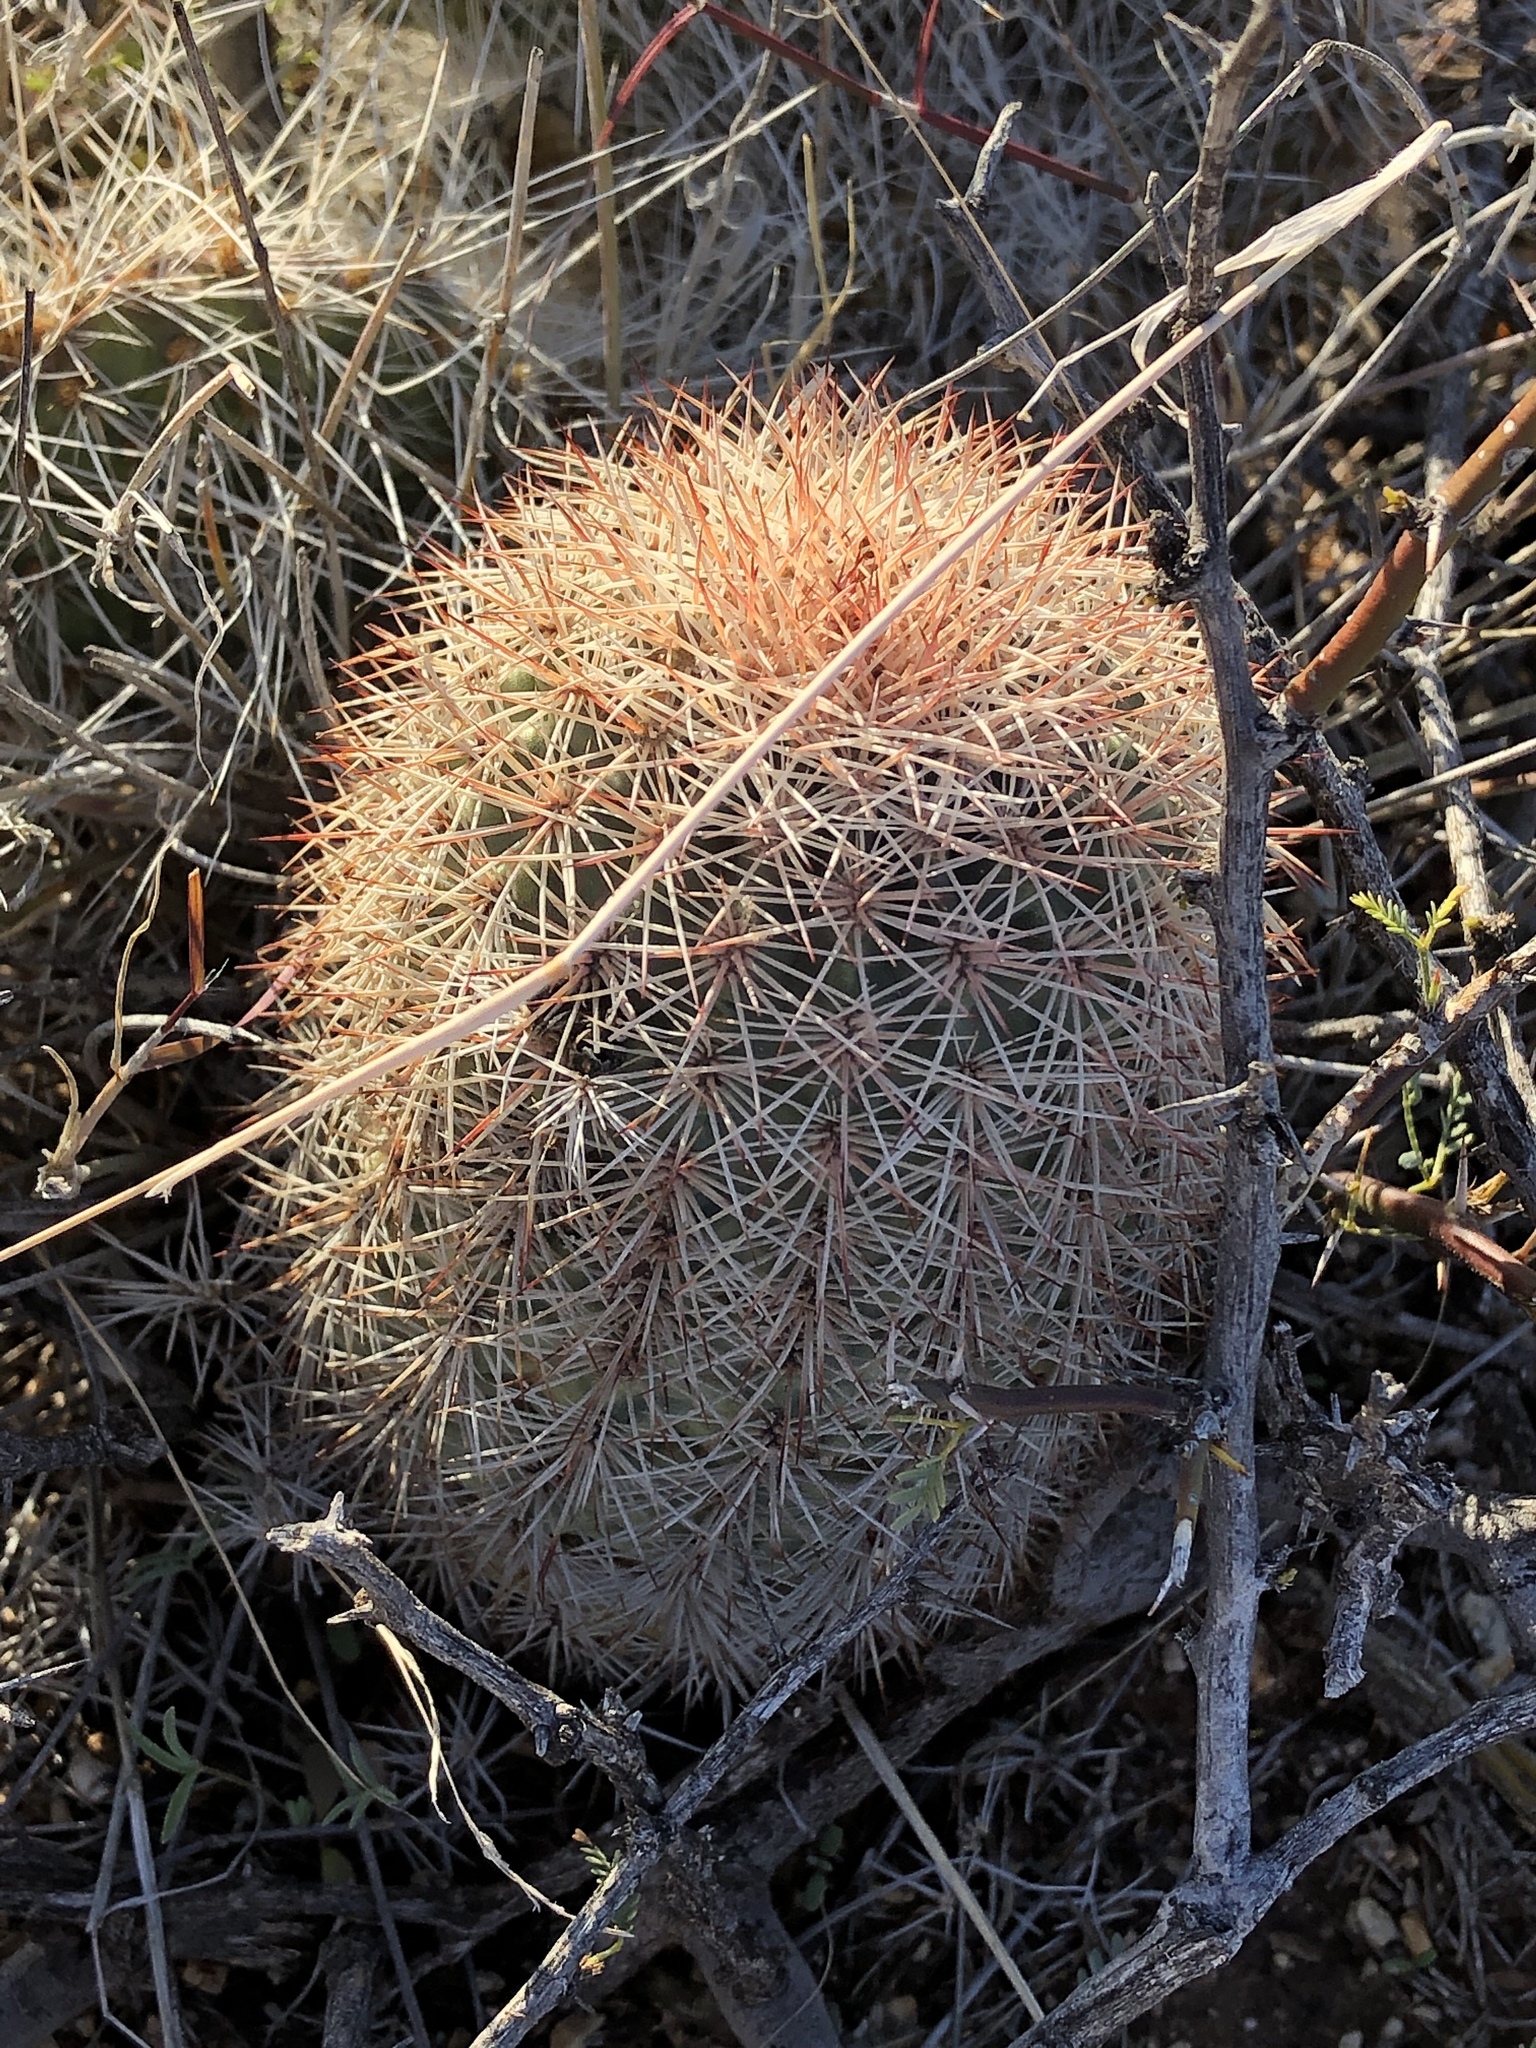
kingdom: Plantae
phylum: Tracheophyta
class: Magnoliopsida
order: Caryophyllales
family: Cactaceae
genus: Echinocereus
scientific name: Echinocereus dasyacanthus
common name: Spiny hedgehog cactus
